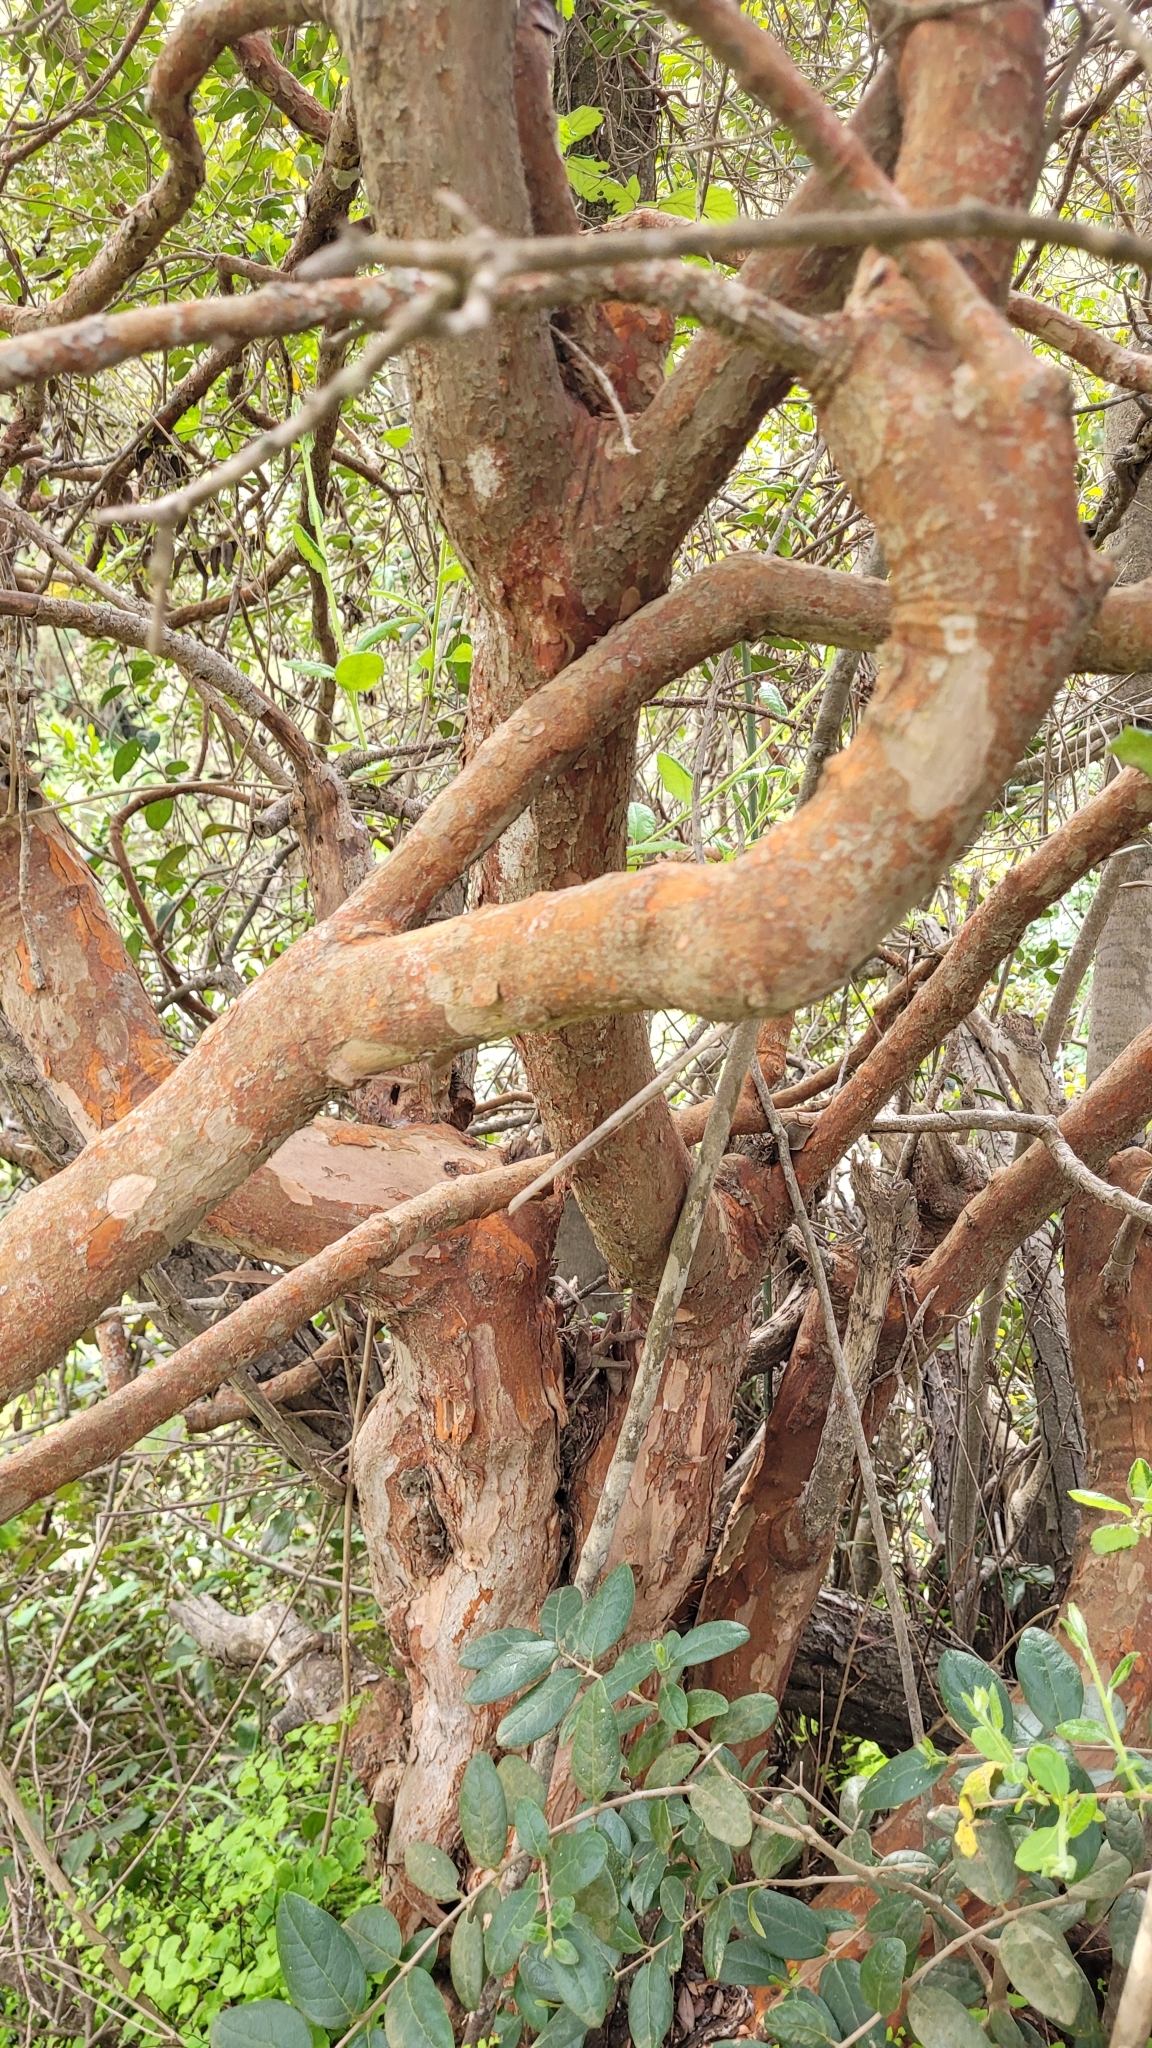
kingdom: Plantae
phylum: Tracheophyta
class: Magnoliopsida
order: Myrtales
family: Myrtaceae
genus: Luma
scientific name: Luma apiculata
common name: Chilean myrtle
